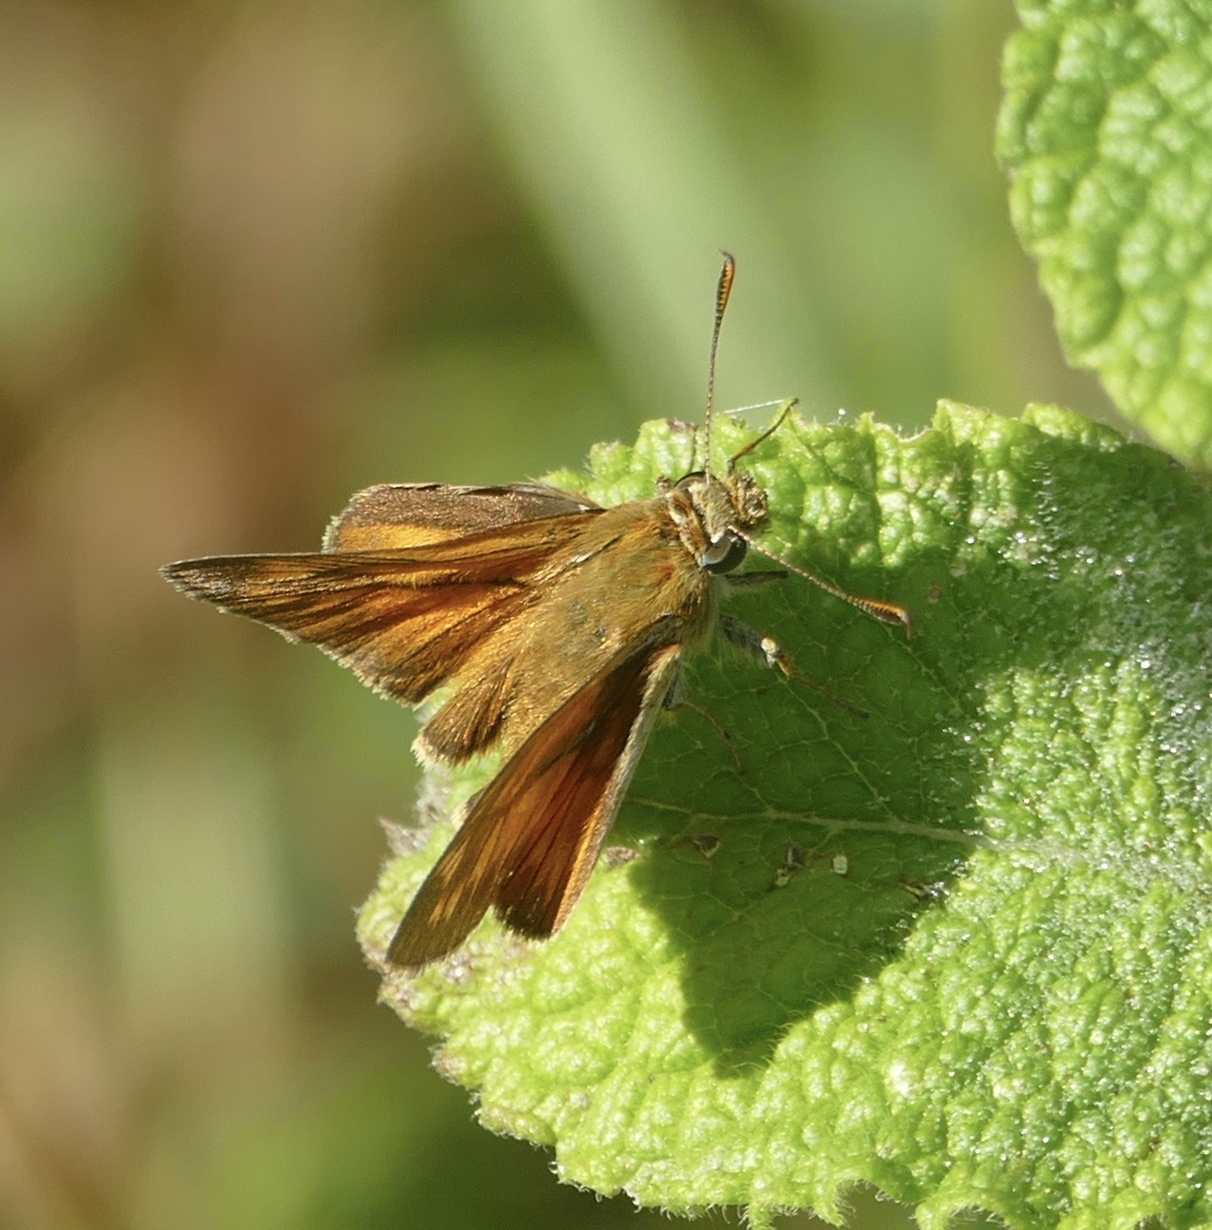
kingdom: Animalia
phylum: Arthropoda
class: Insecta
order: Lepidoptera
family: Hesperiidae
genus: Ochlodes
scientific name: Ochlodes venata
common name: Large skipper
